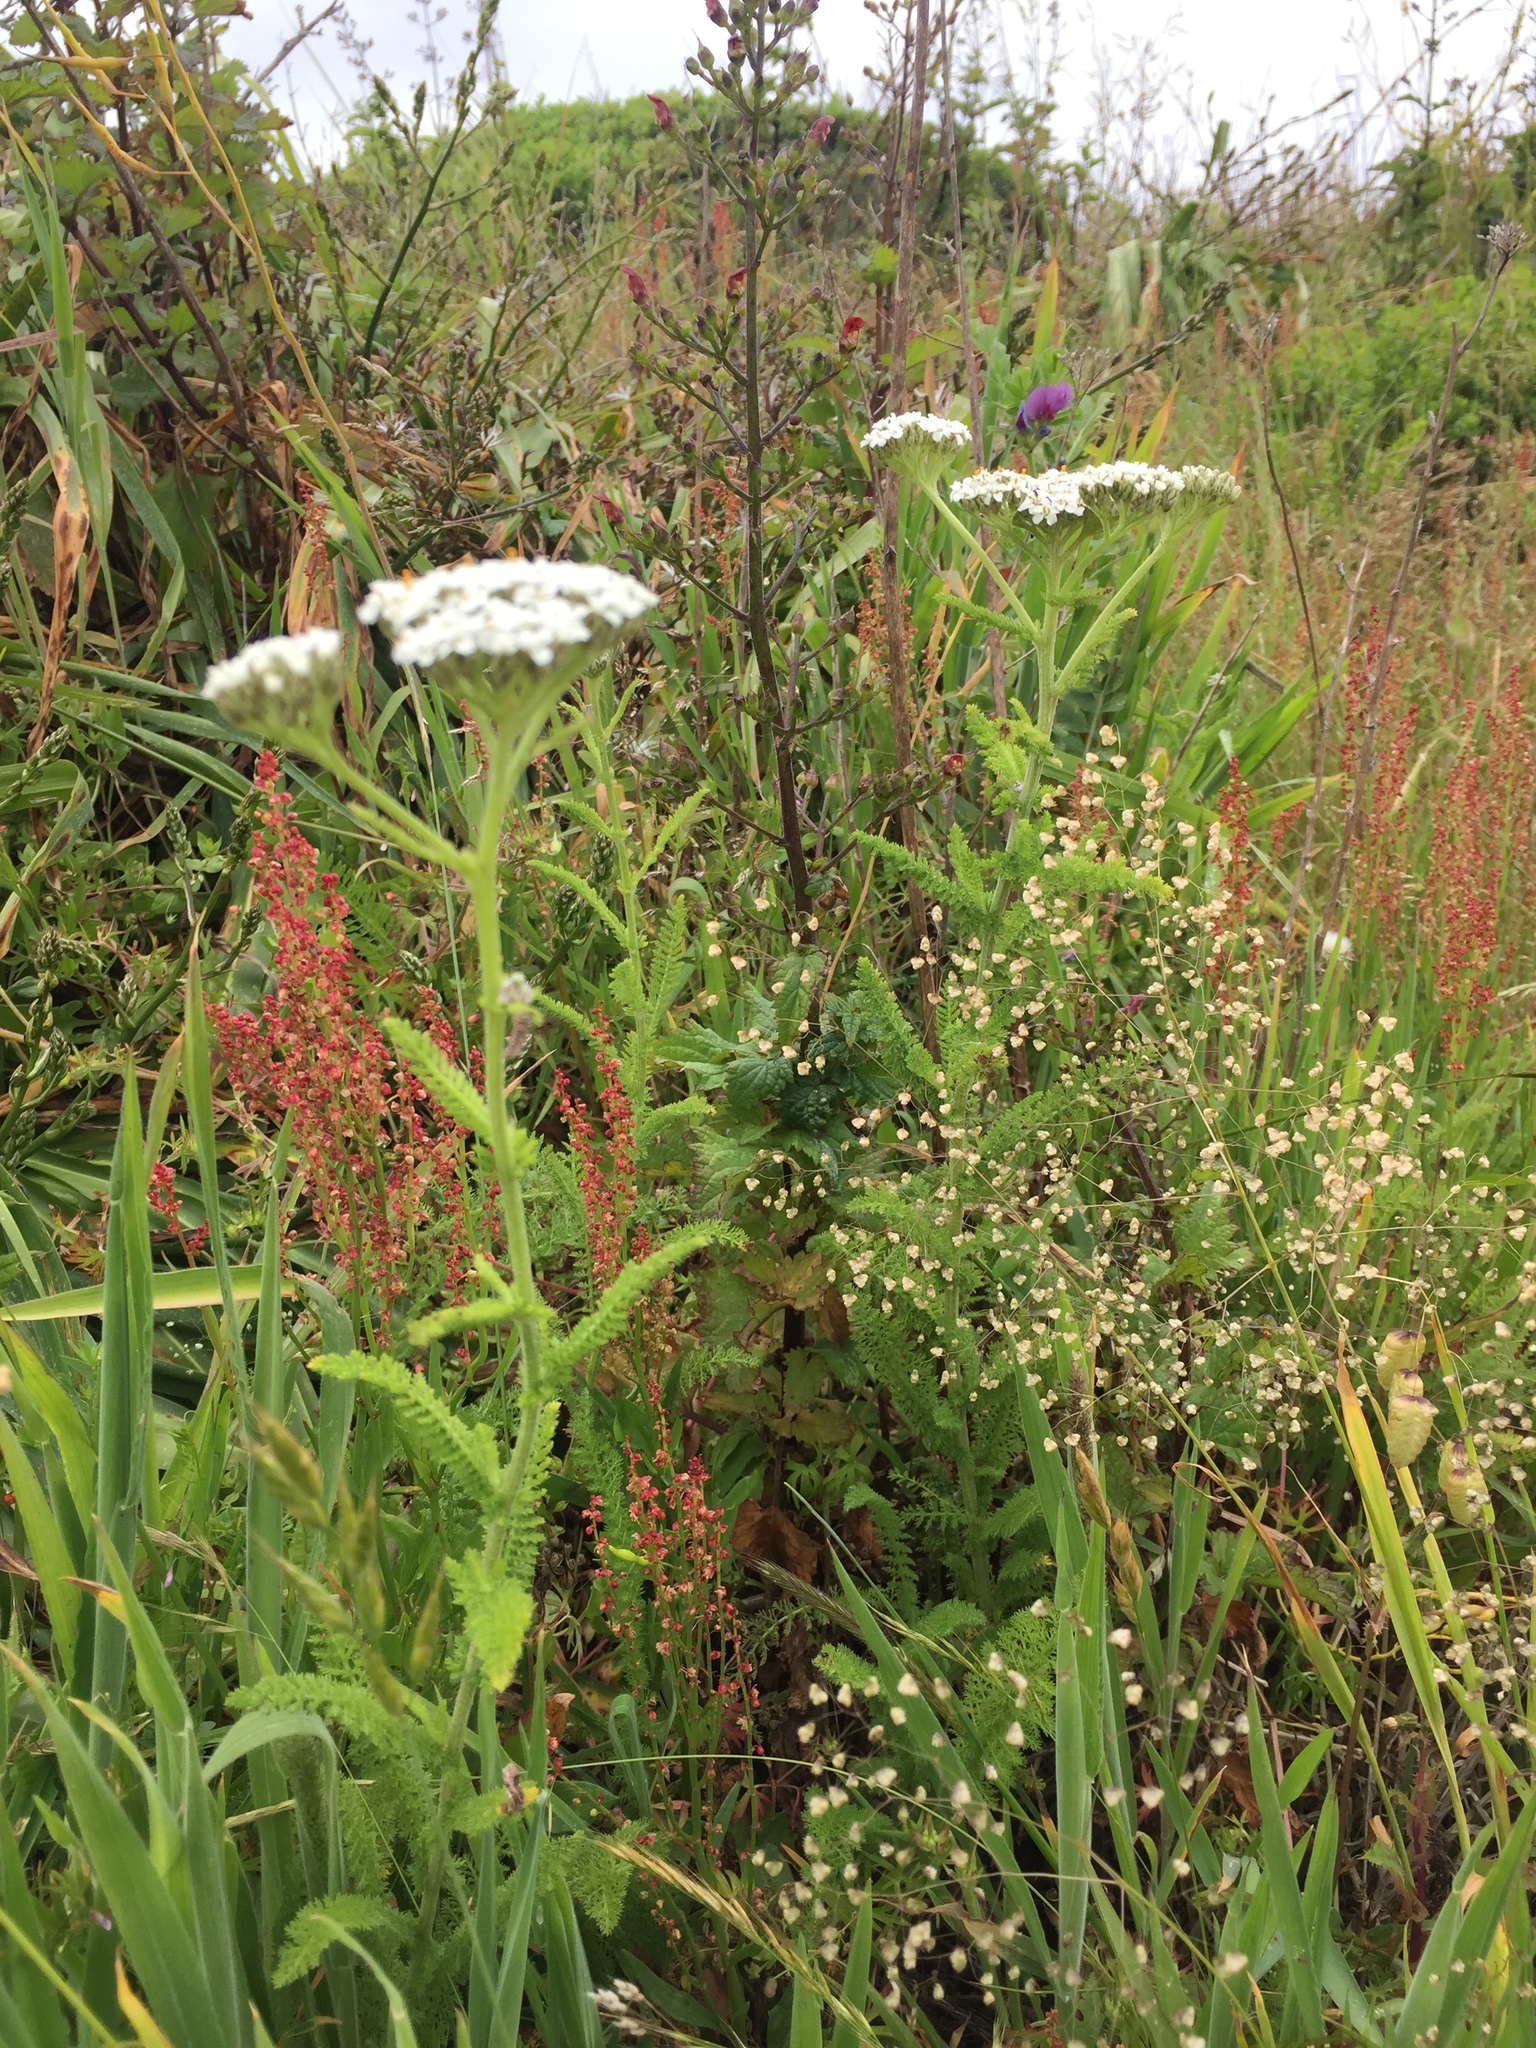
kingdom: Plantae
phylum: Tracheophyta
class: Magnoliopsida
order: Asterales
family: Asteraceae
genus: Achillea
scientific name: Achillea millefolium
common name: Yarrow
